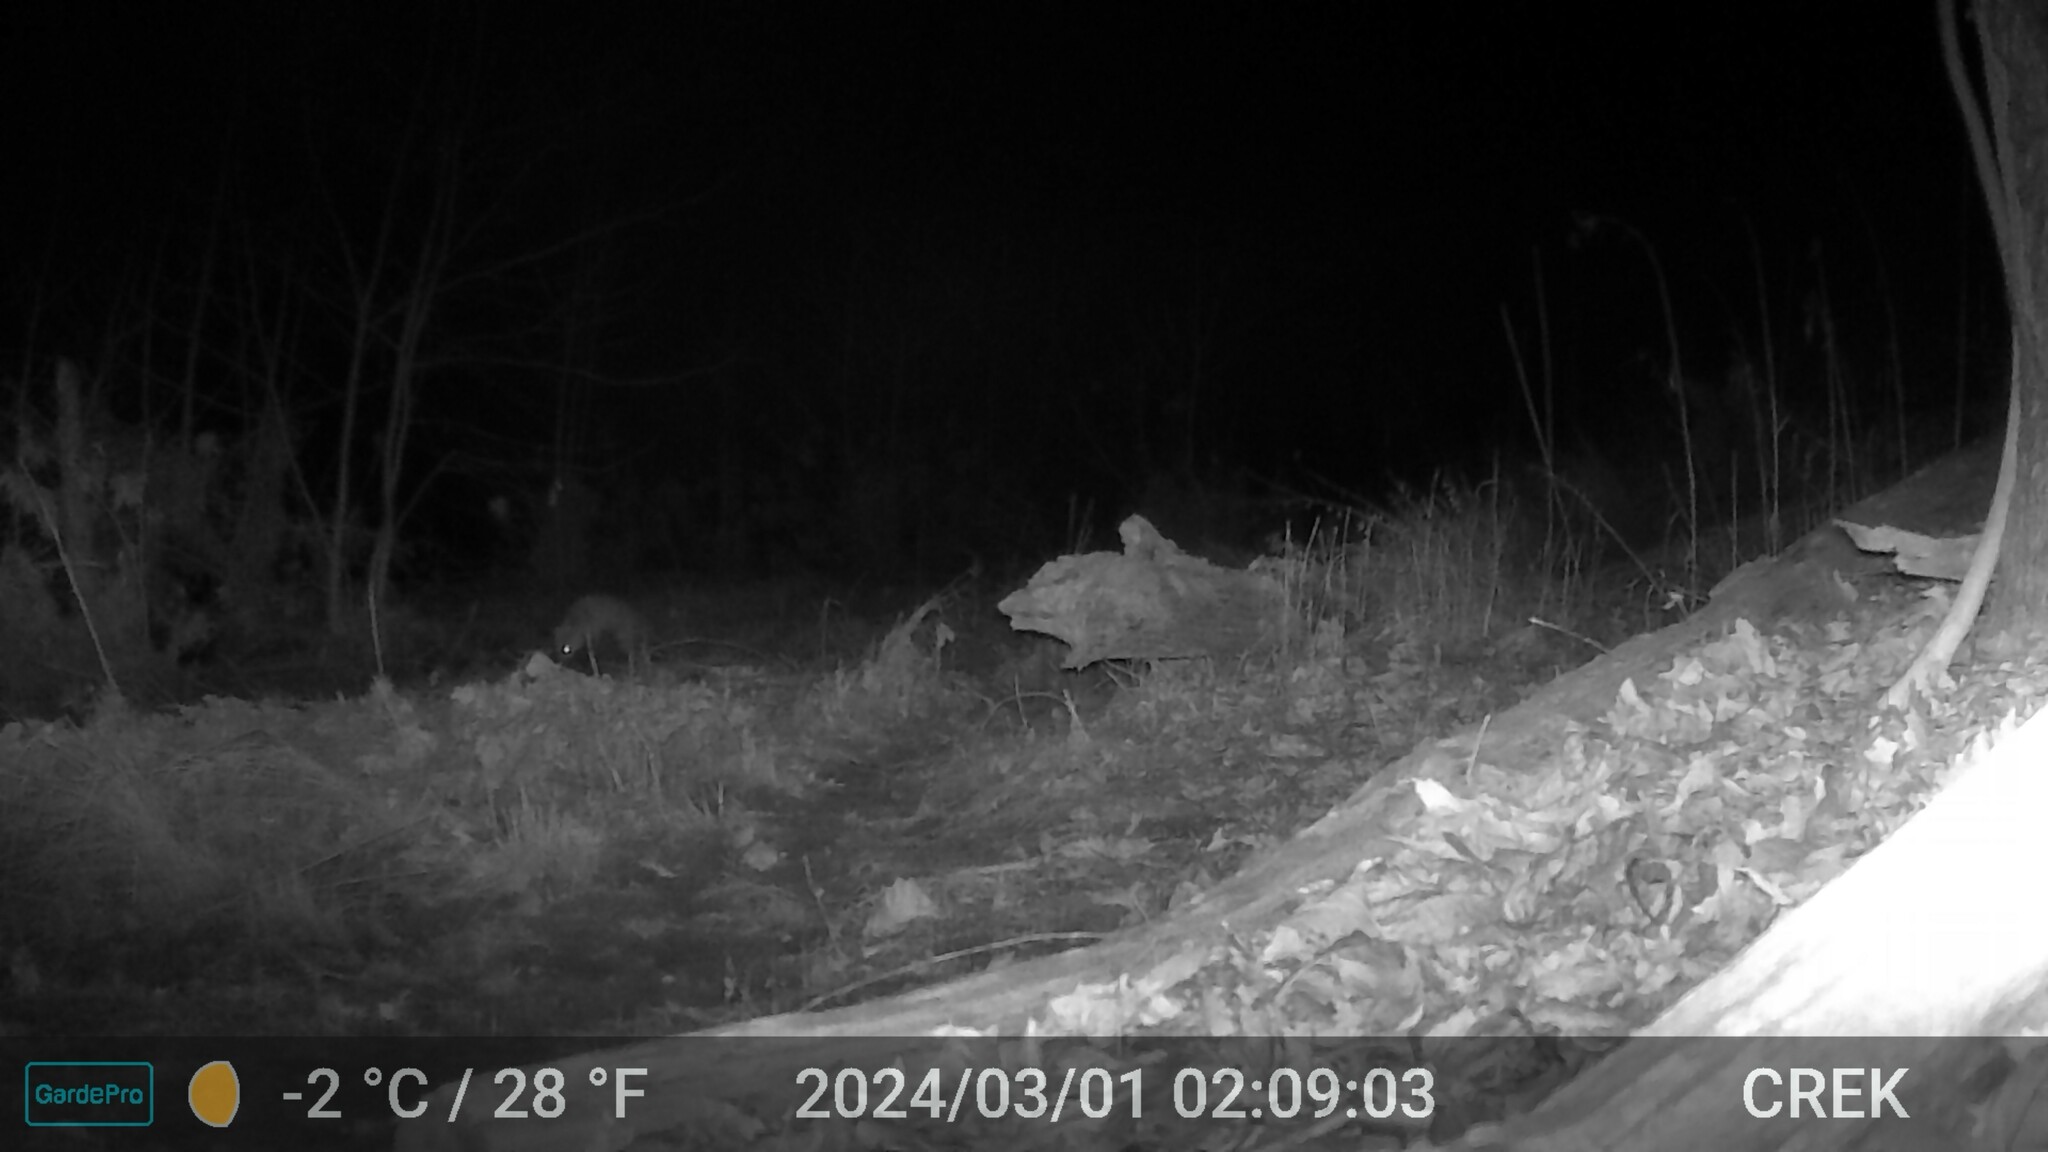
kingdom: Animalia
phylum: Chordata
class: Mammalia
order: Carnivora
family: Canidae
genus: Vulpes
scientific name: Vulpes vulpes
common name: Red fox
